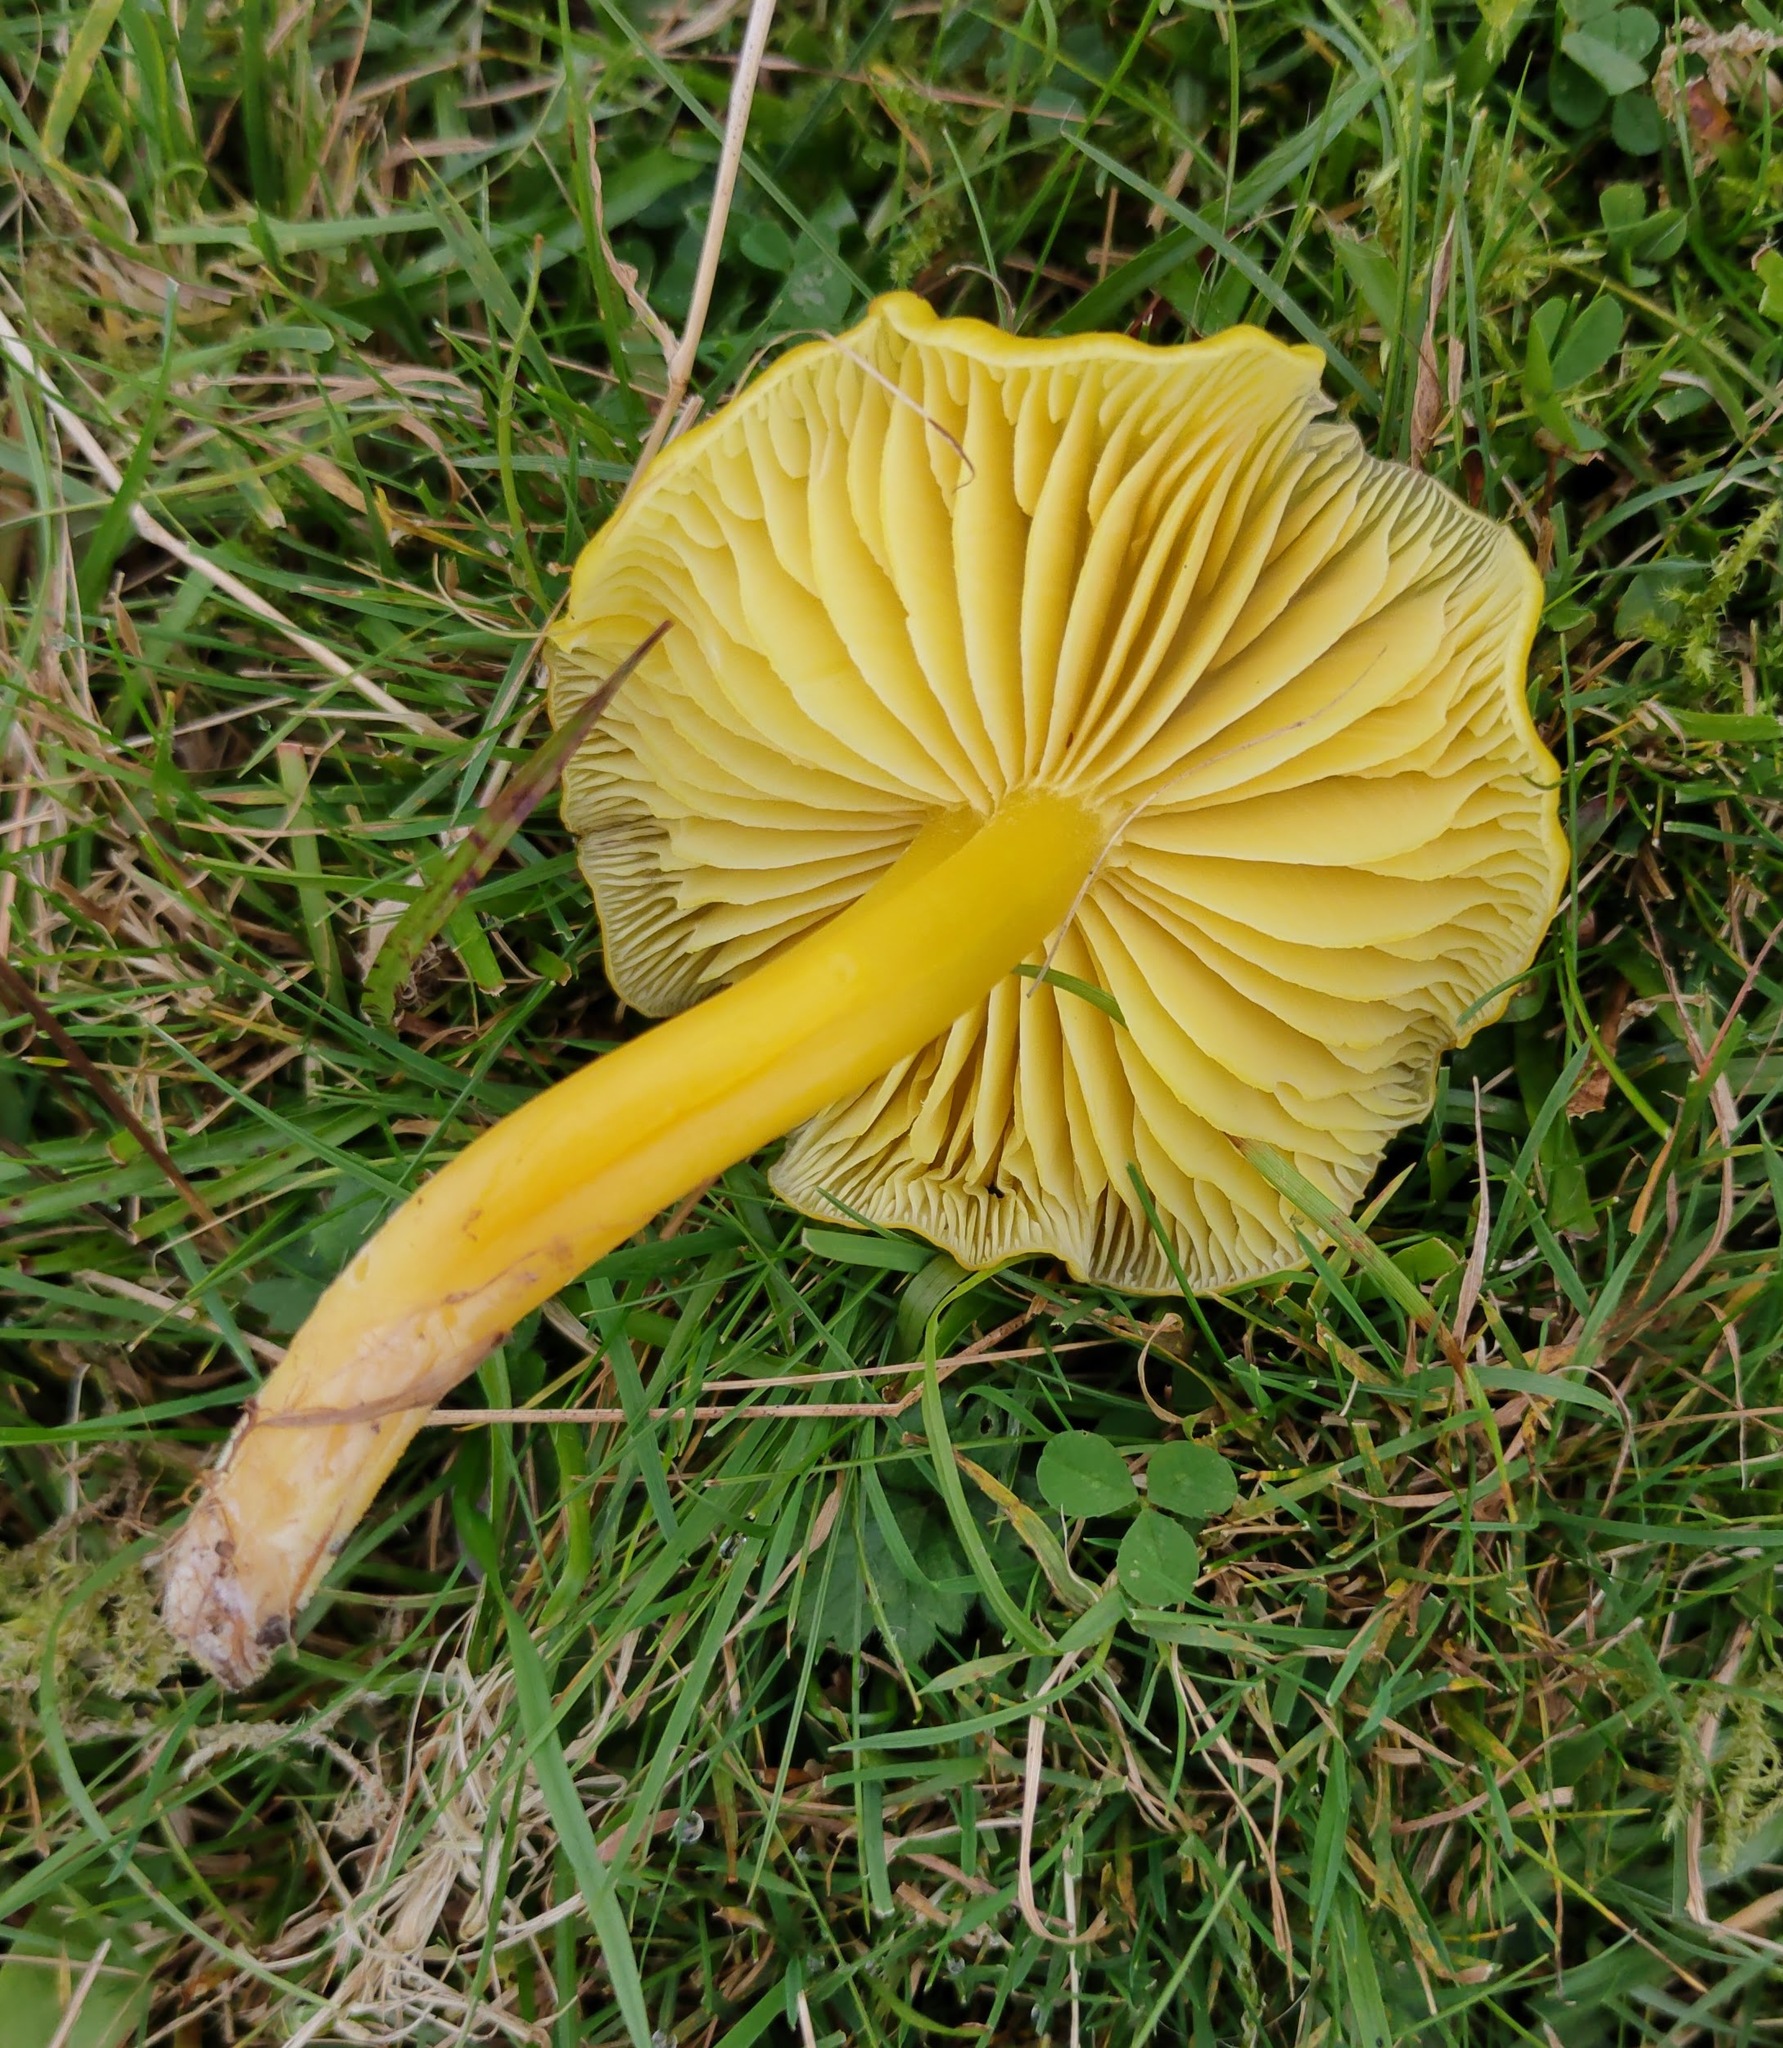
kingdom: Fungi
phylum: Basidiomycota
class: Agaricomycetes
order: Agaricales
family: Hygrophoraceae
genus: Hygrocybe
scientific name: Hygrocybe chlorophana
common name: Golden waxcap
